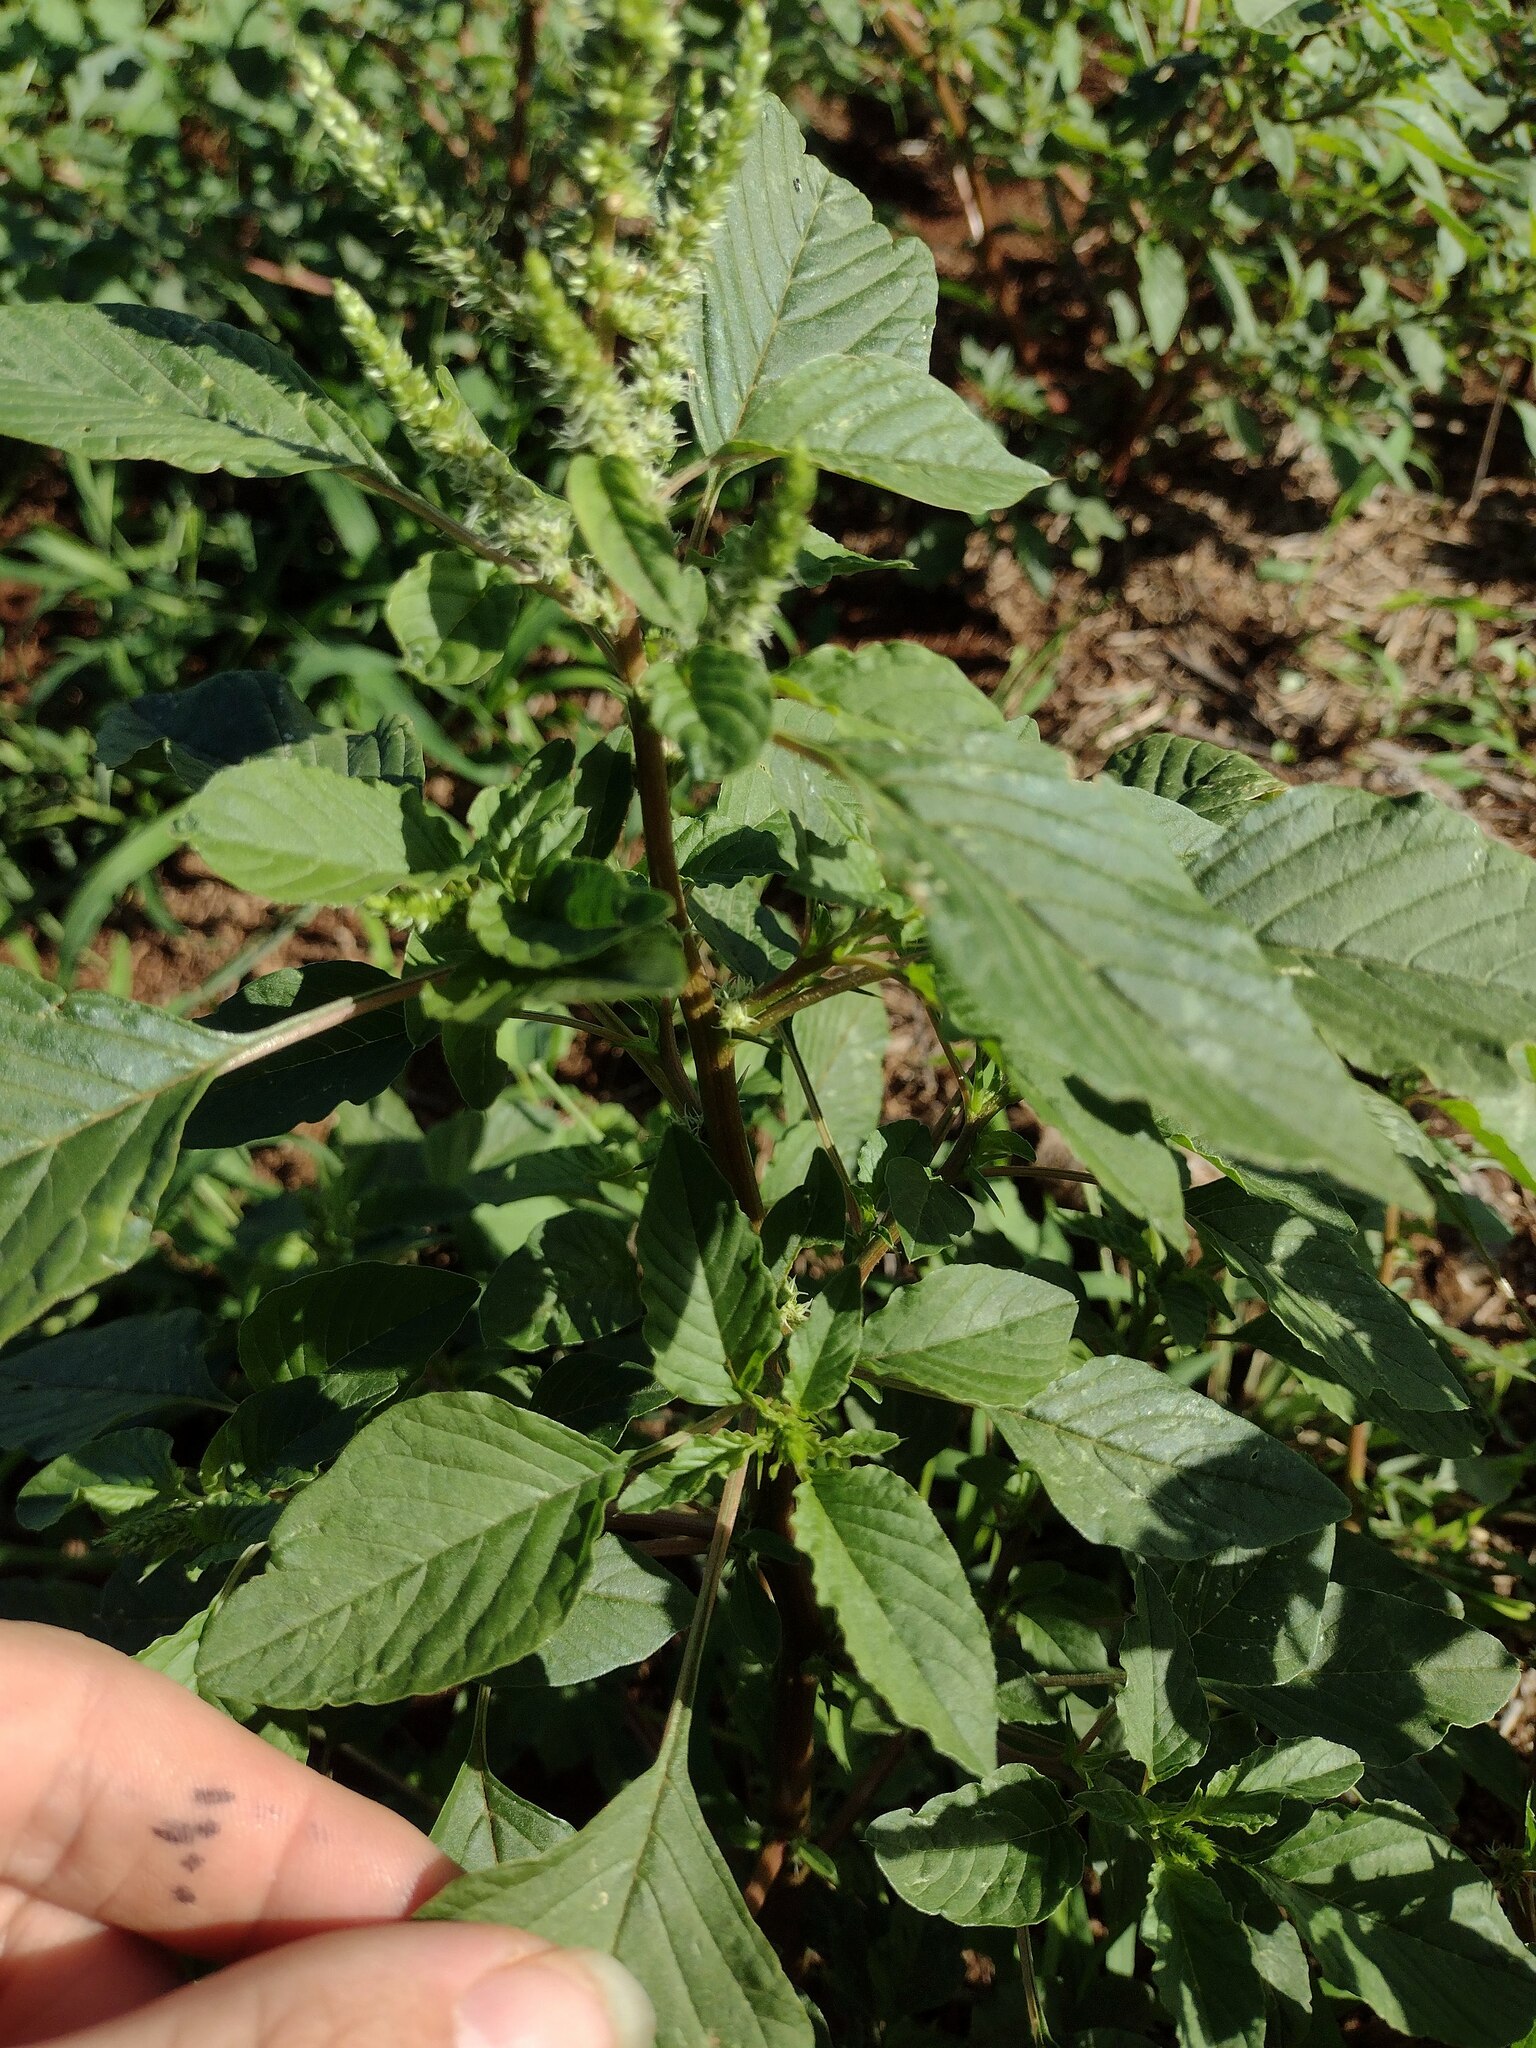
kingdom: Plantae
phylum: Tracheophyta
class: Magnoliopsida
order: Caryophyllales
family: Amaranthaceae
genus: Amaranthus
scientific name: Amaranthus spinosus
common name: Spiny amaranth
